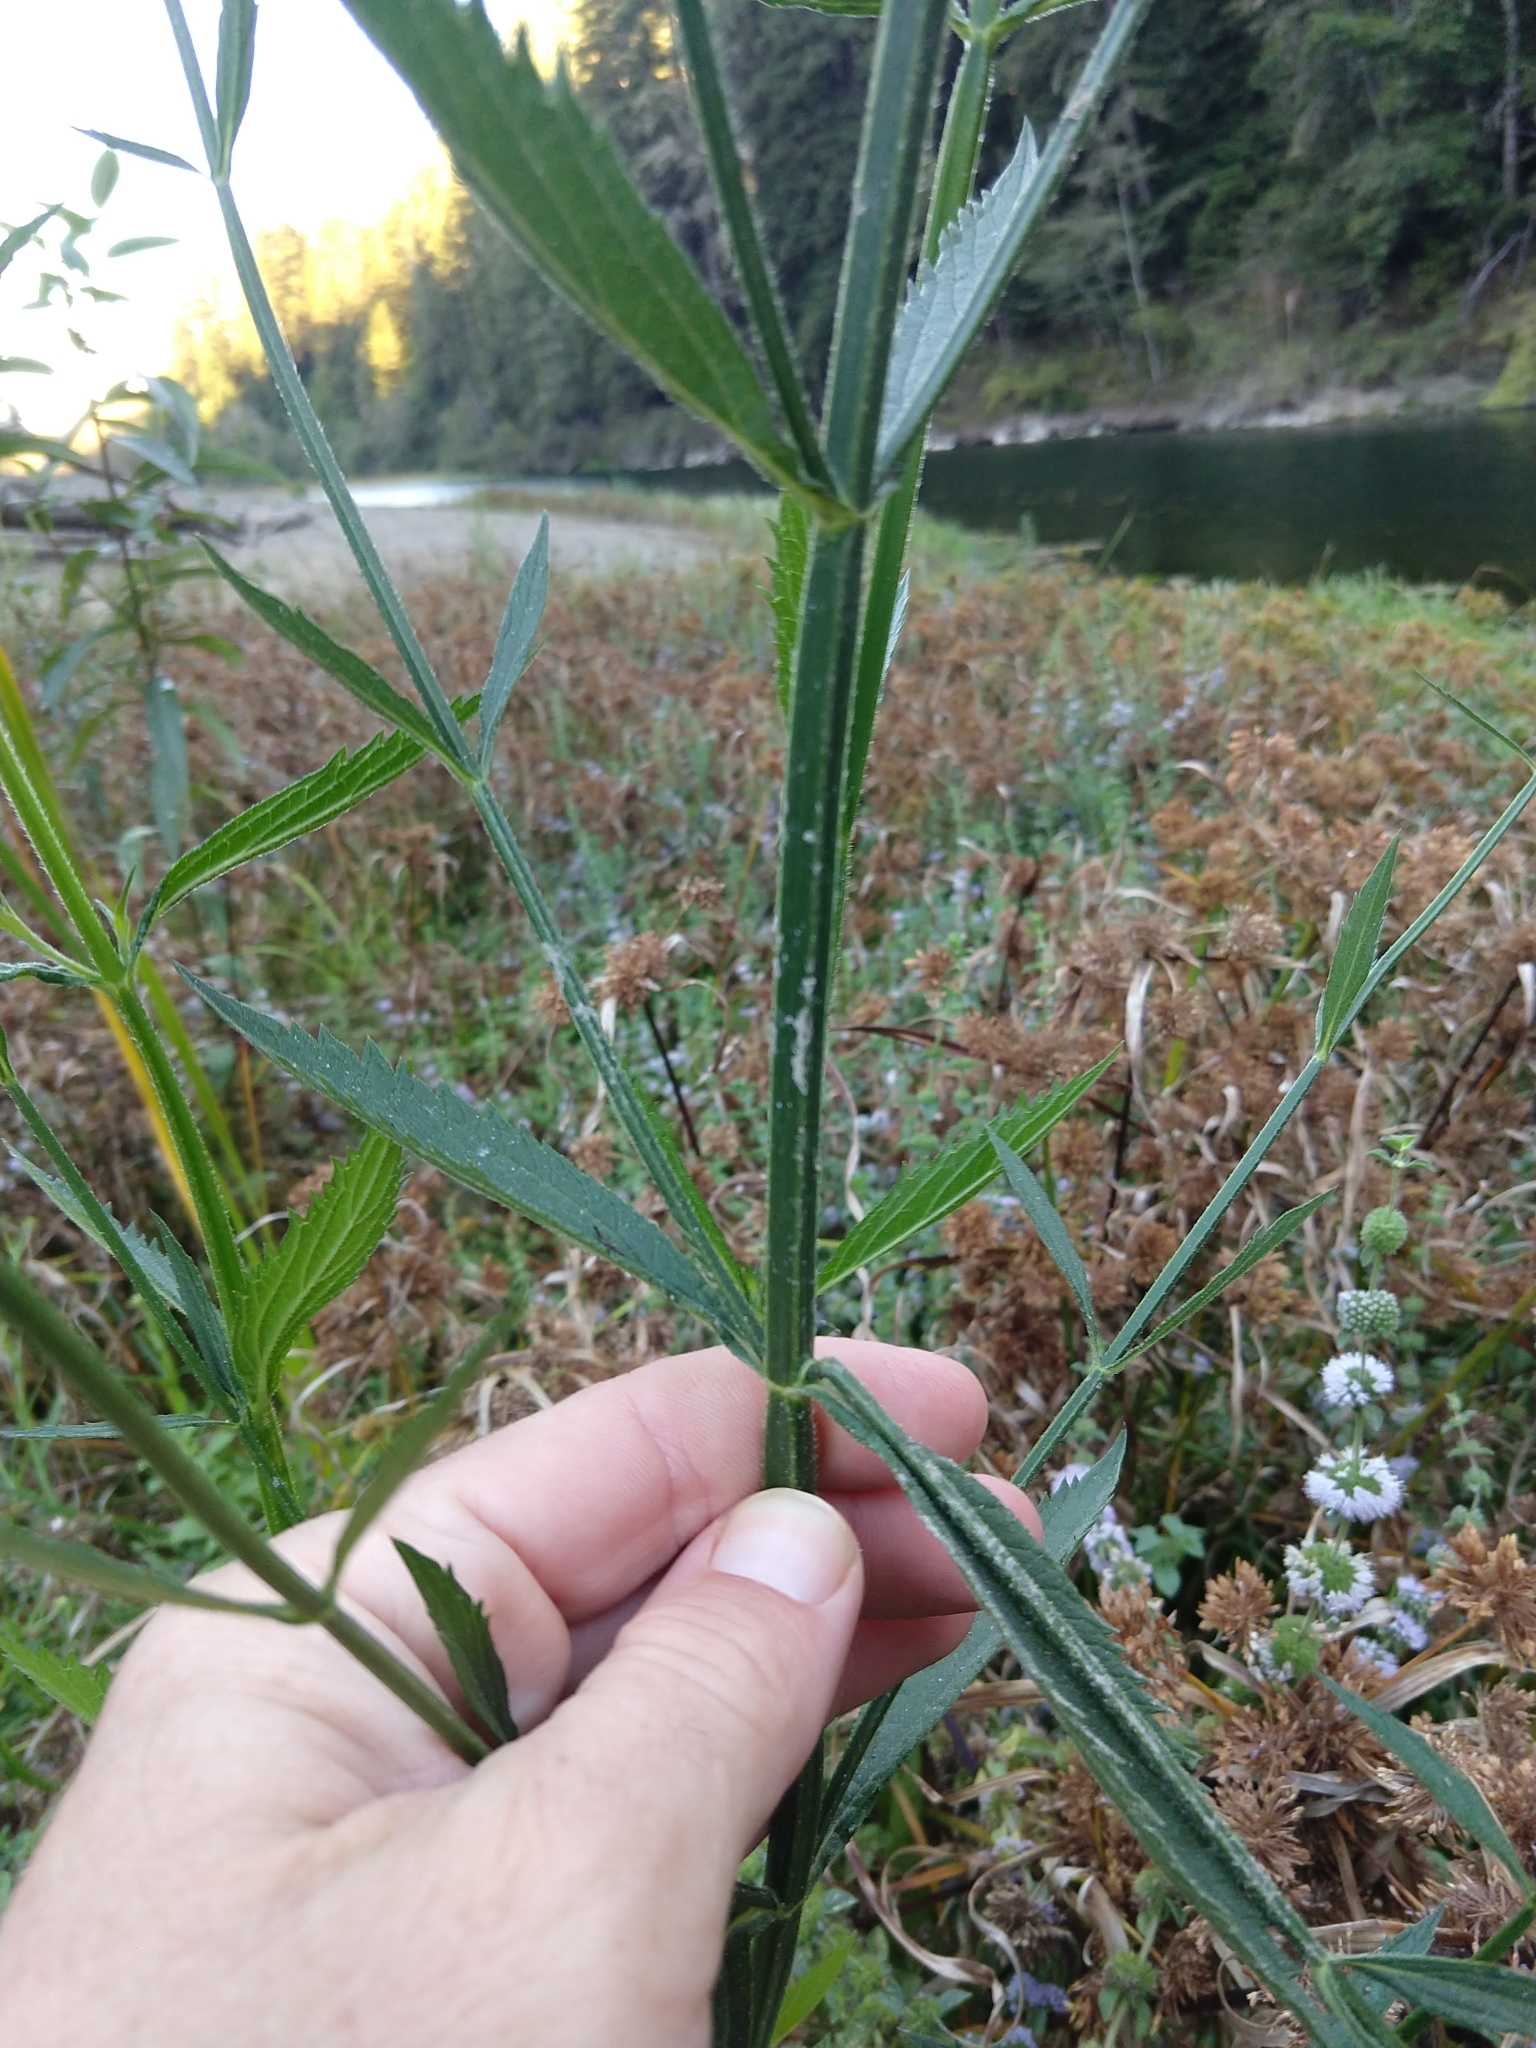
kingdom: Plantae
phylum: Tracheophyta
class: Magnoliopsida
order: Lamiales
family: Verbenaceae
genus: Verbena
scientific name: Verbena litoralis
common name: Seashore vervain
